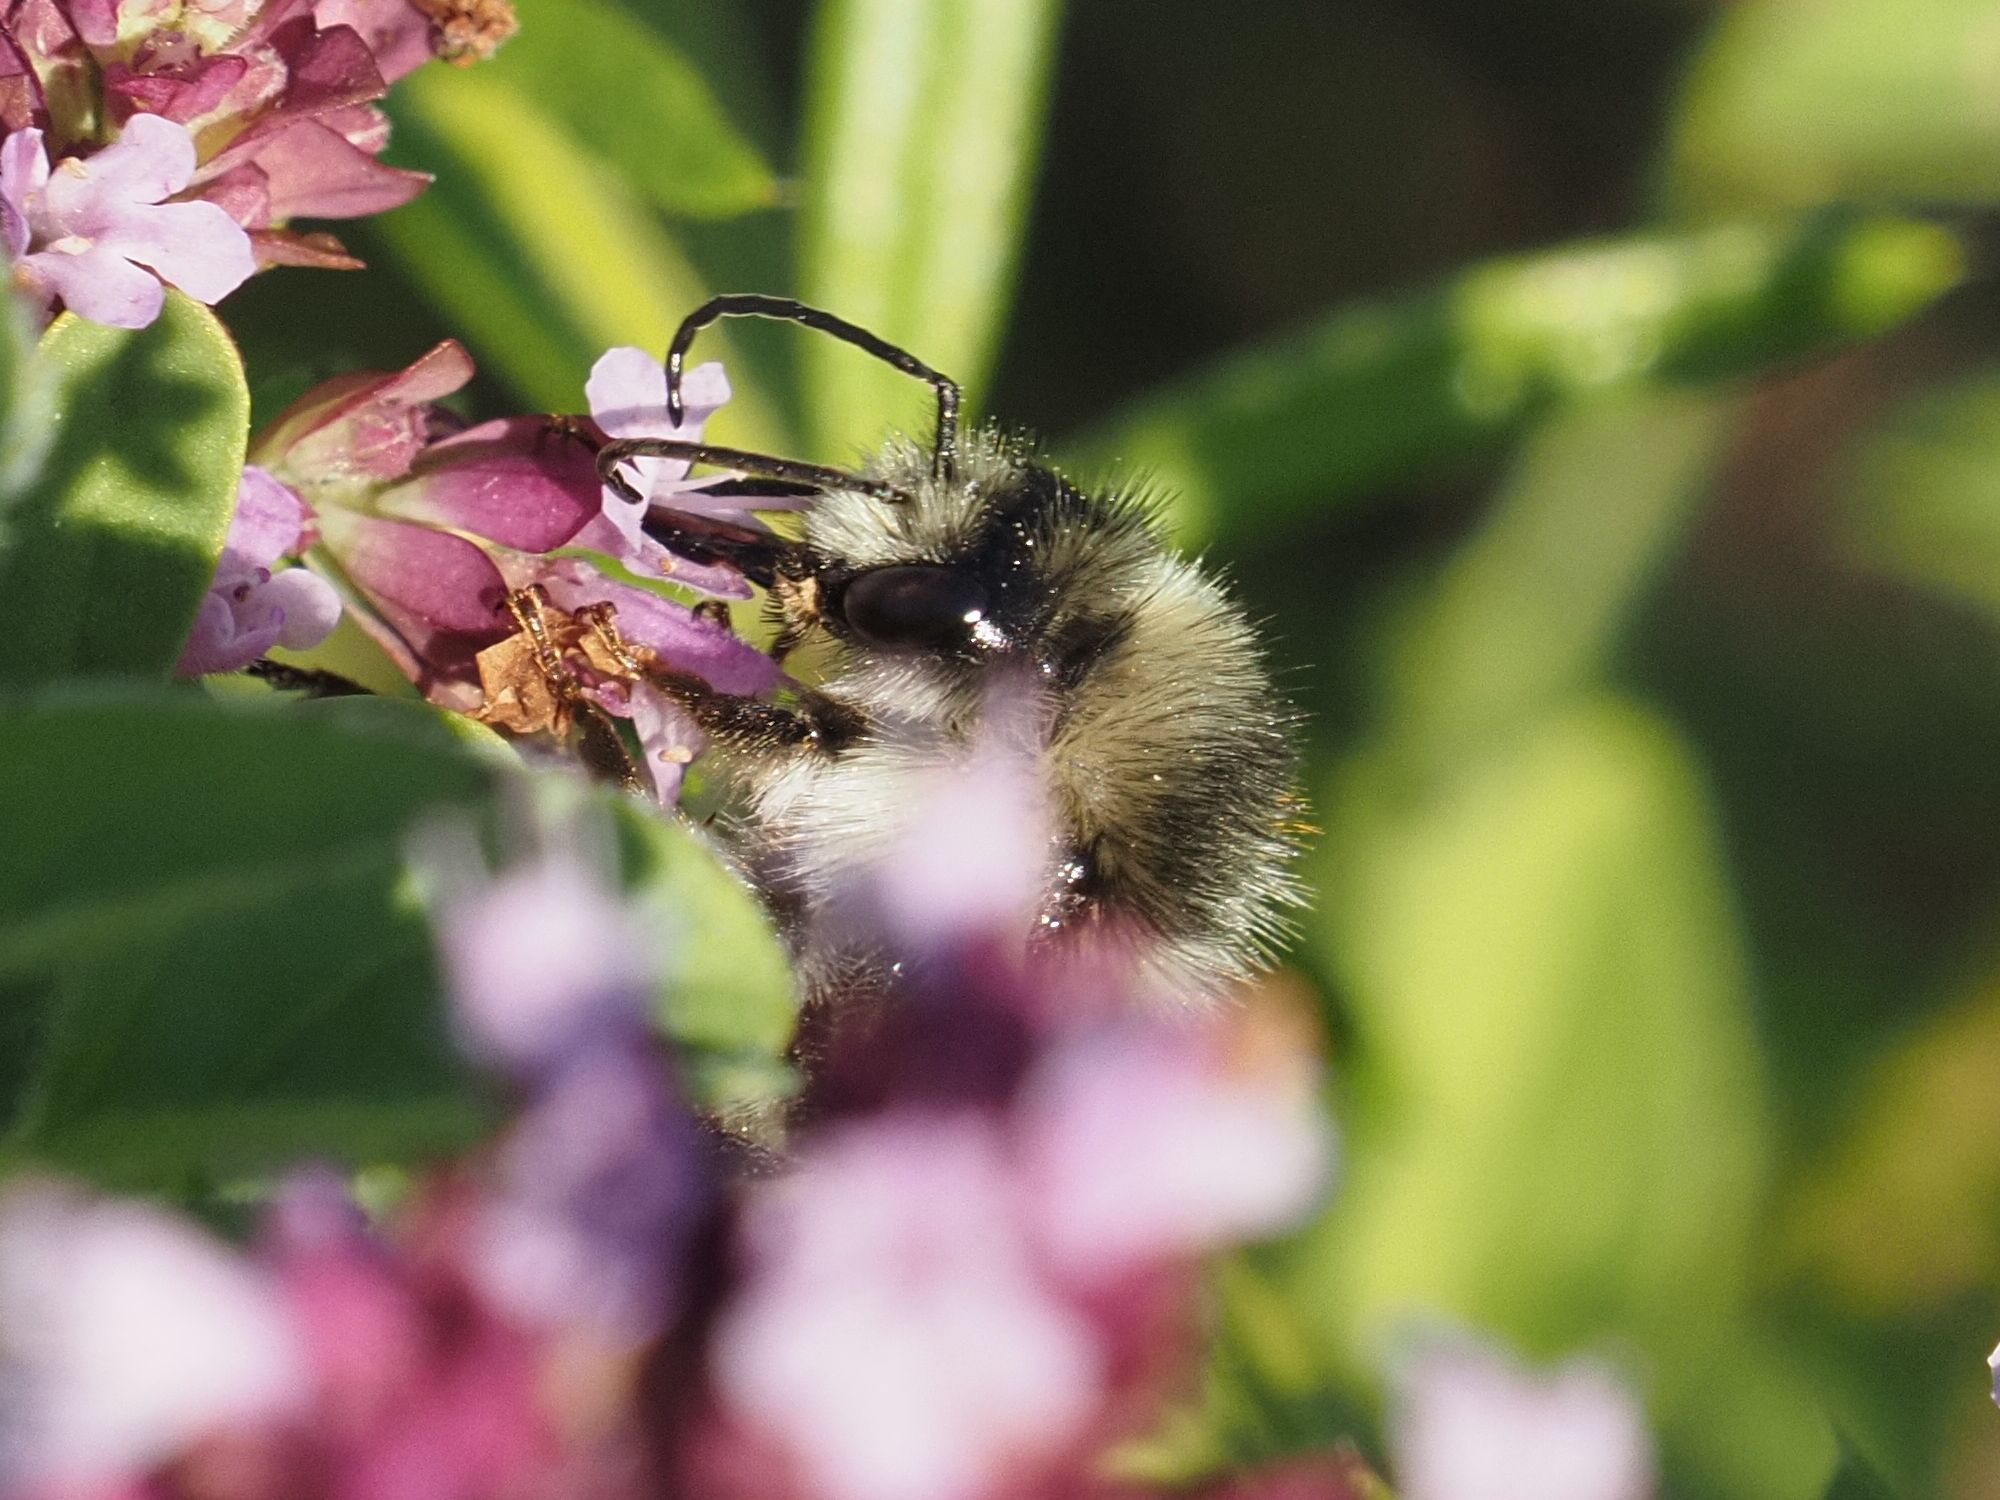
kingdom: Animalia
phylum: Arthropoda
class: Insecta
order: Hymenoptera
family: Apidae
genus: Bombus
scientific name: Bombus sylvarum
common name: Shrill carder bee
